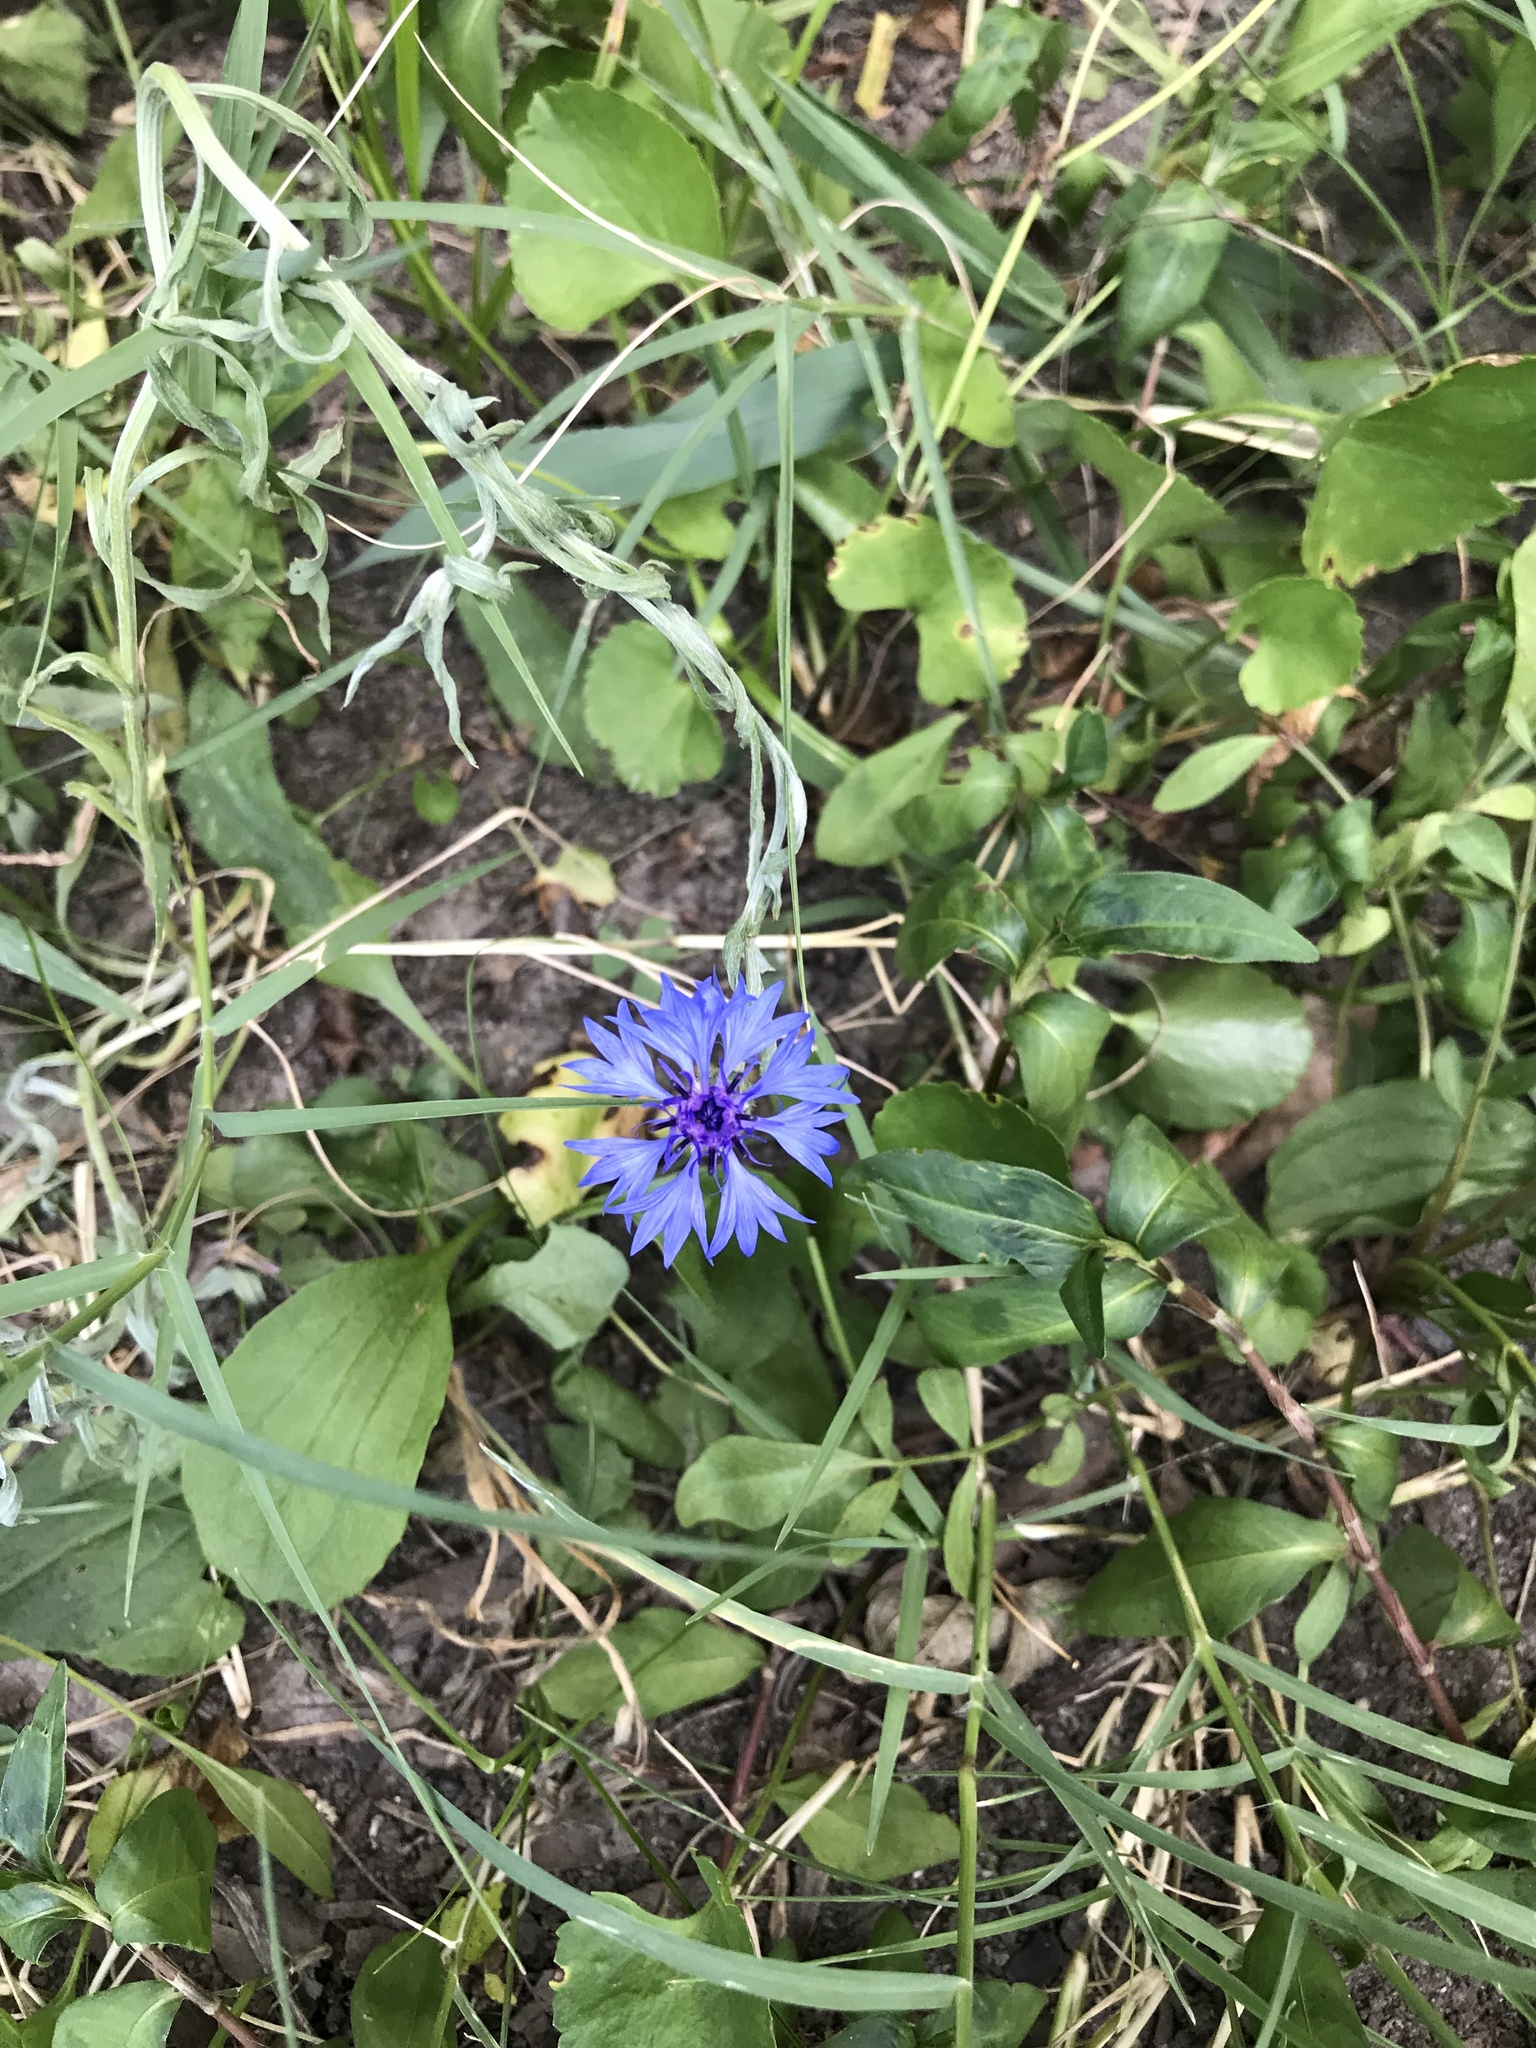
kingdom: Plantae
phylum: Tracheophyta
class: Magnoliopsida
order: Asterales
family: Asteraceae
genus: Centaurea
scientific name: Centaurea cyanus
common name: Cornflower
